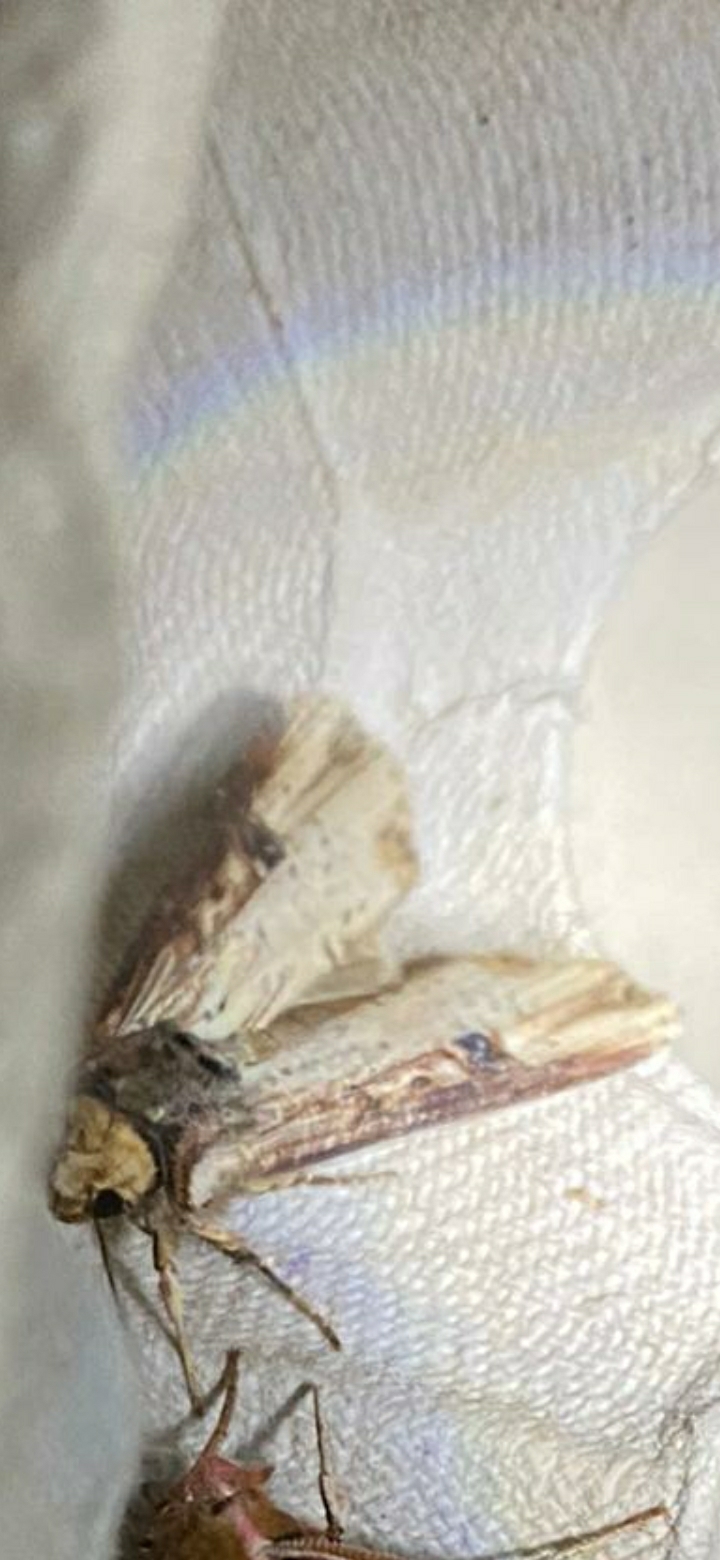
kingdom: Animalia
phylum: Arthropoda
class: Insecta
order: Lepidoptera
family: Noctuidae
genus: Axylia
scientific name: Axylia putris
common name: Flame
